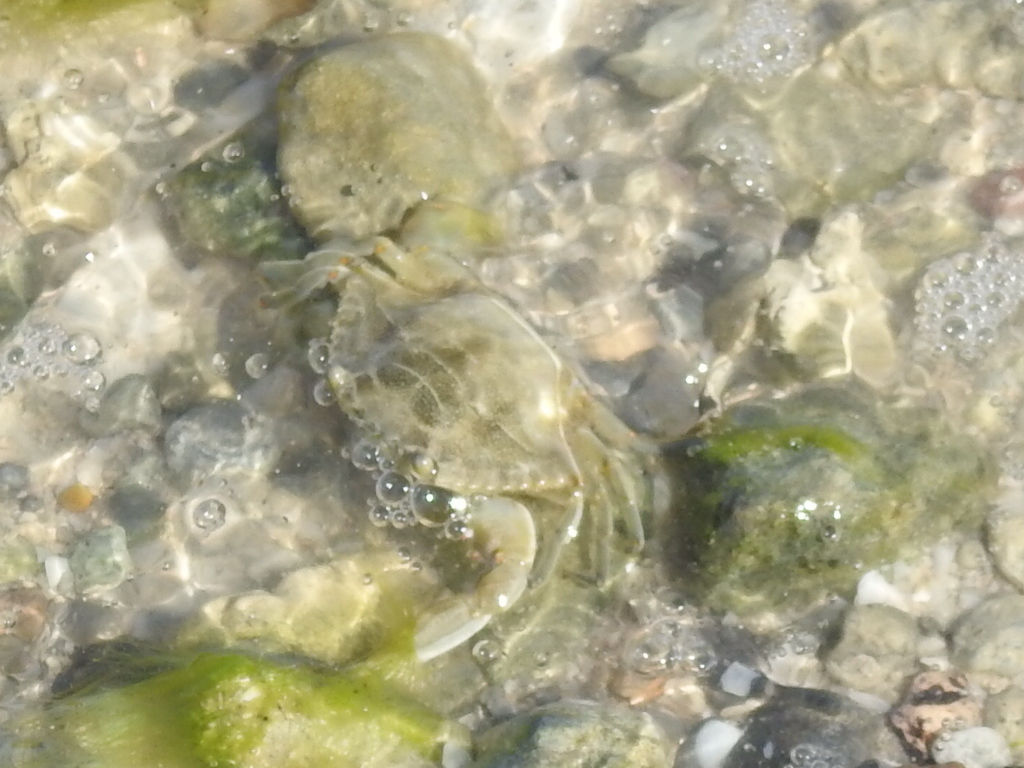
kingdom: Animalia
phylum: Arthropoda
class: Malacostraca
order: Decapoda
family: Portunidae
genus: Callinectes
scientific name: Callinectes sapidus
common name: Blue crab
